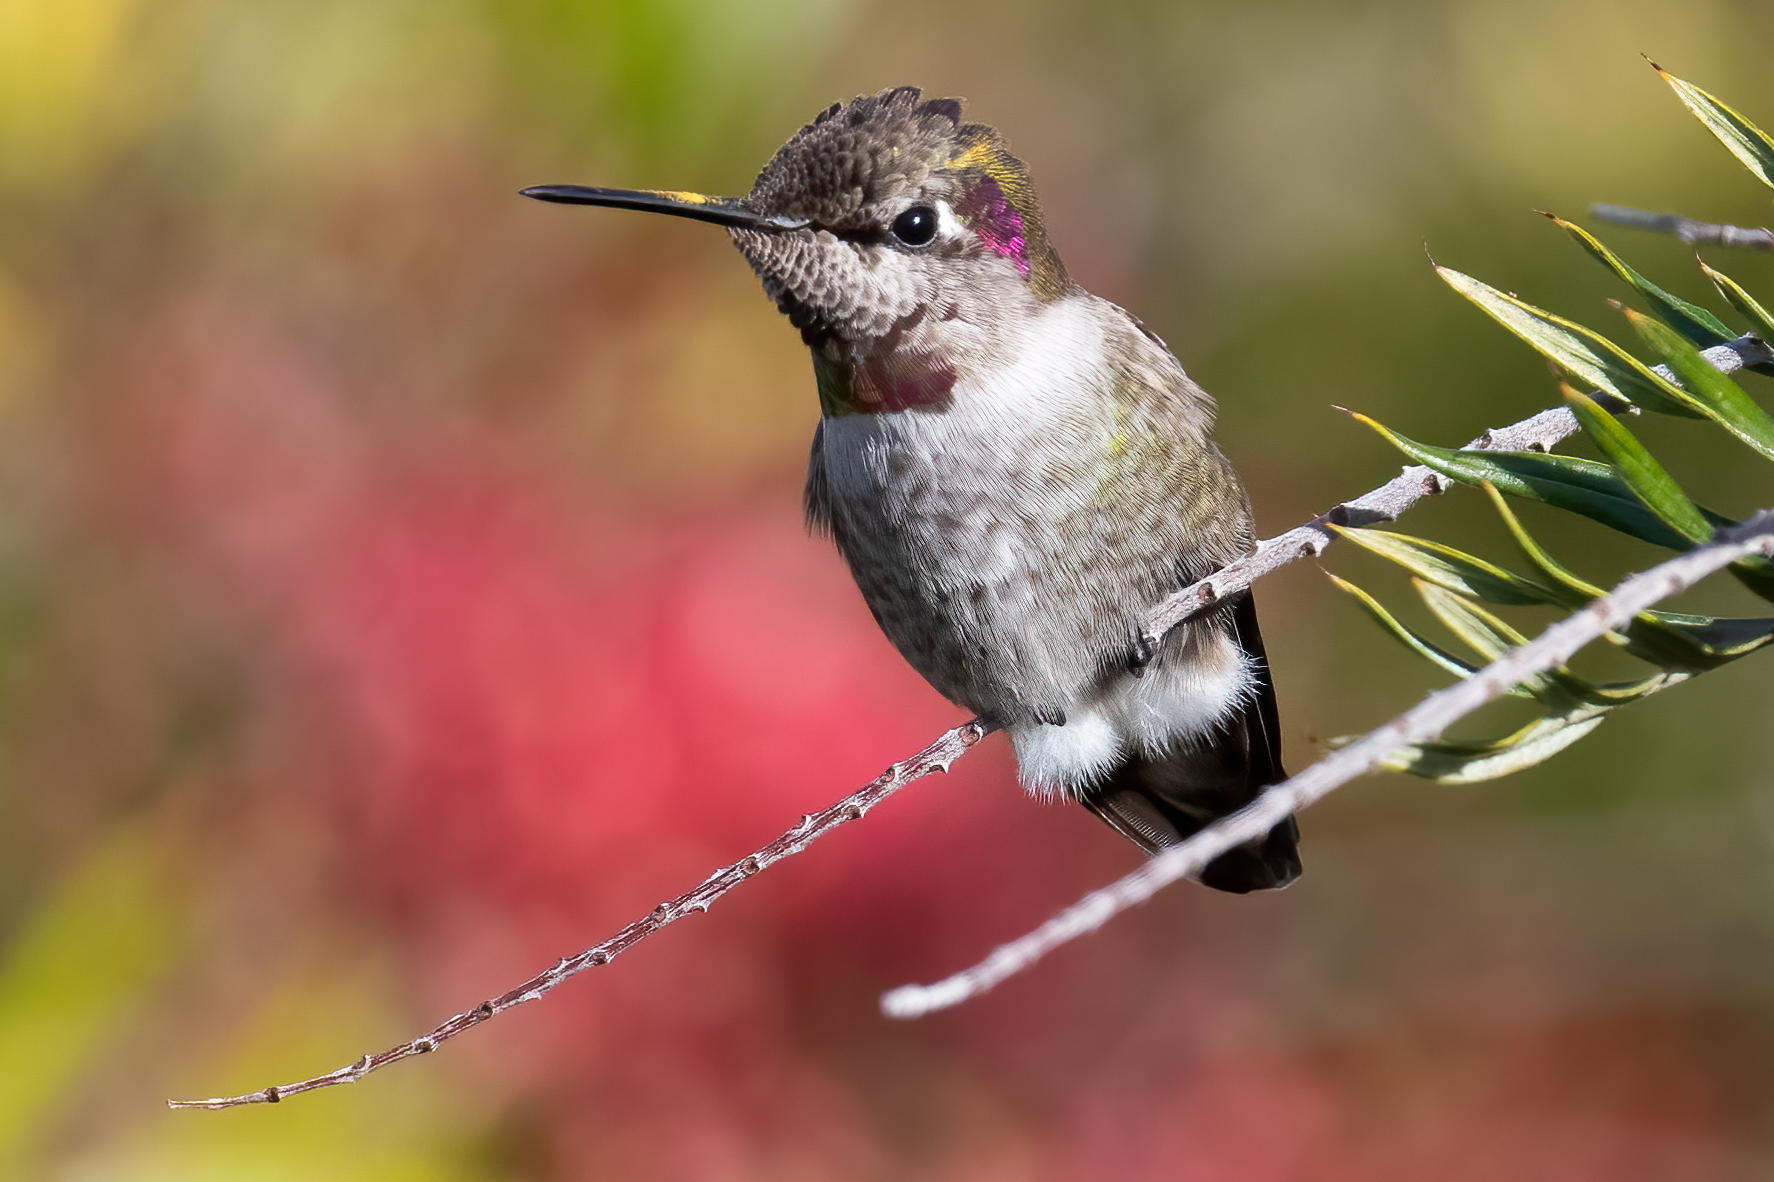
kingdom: Animalia
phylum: Chordata
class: Aves
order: Apodiformes
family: Trochilidae
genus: Calypte
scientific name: Calypte anna
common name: Anna's hummingbird
